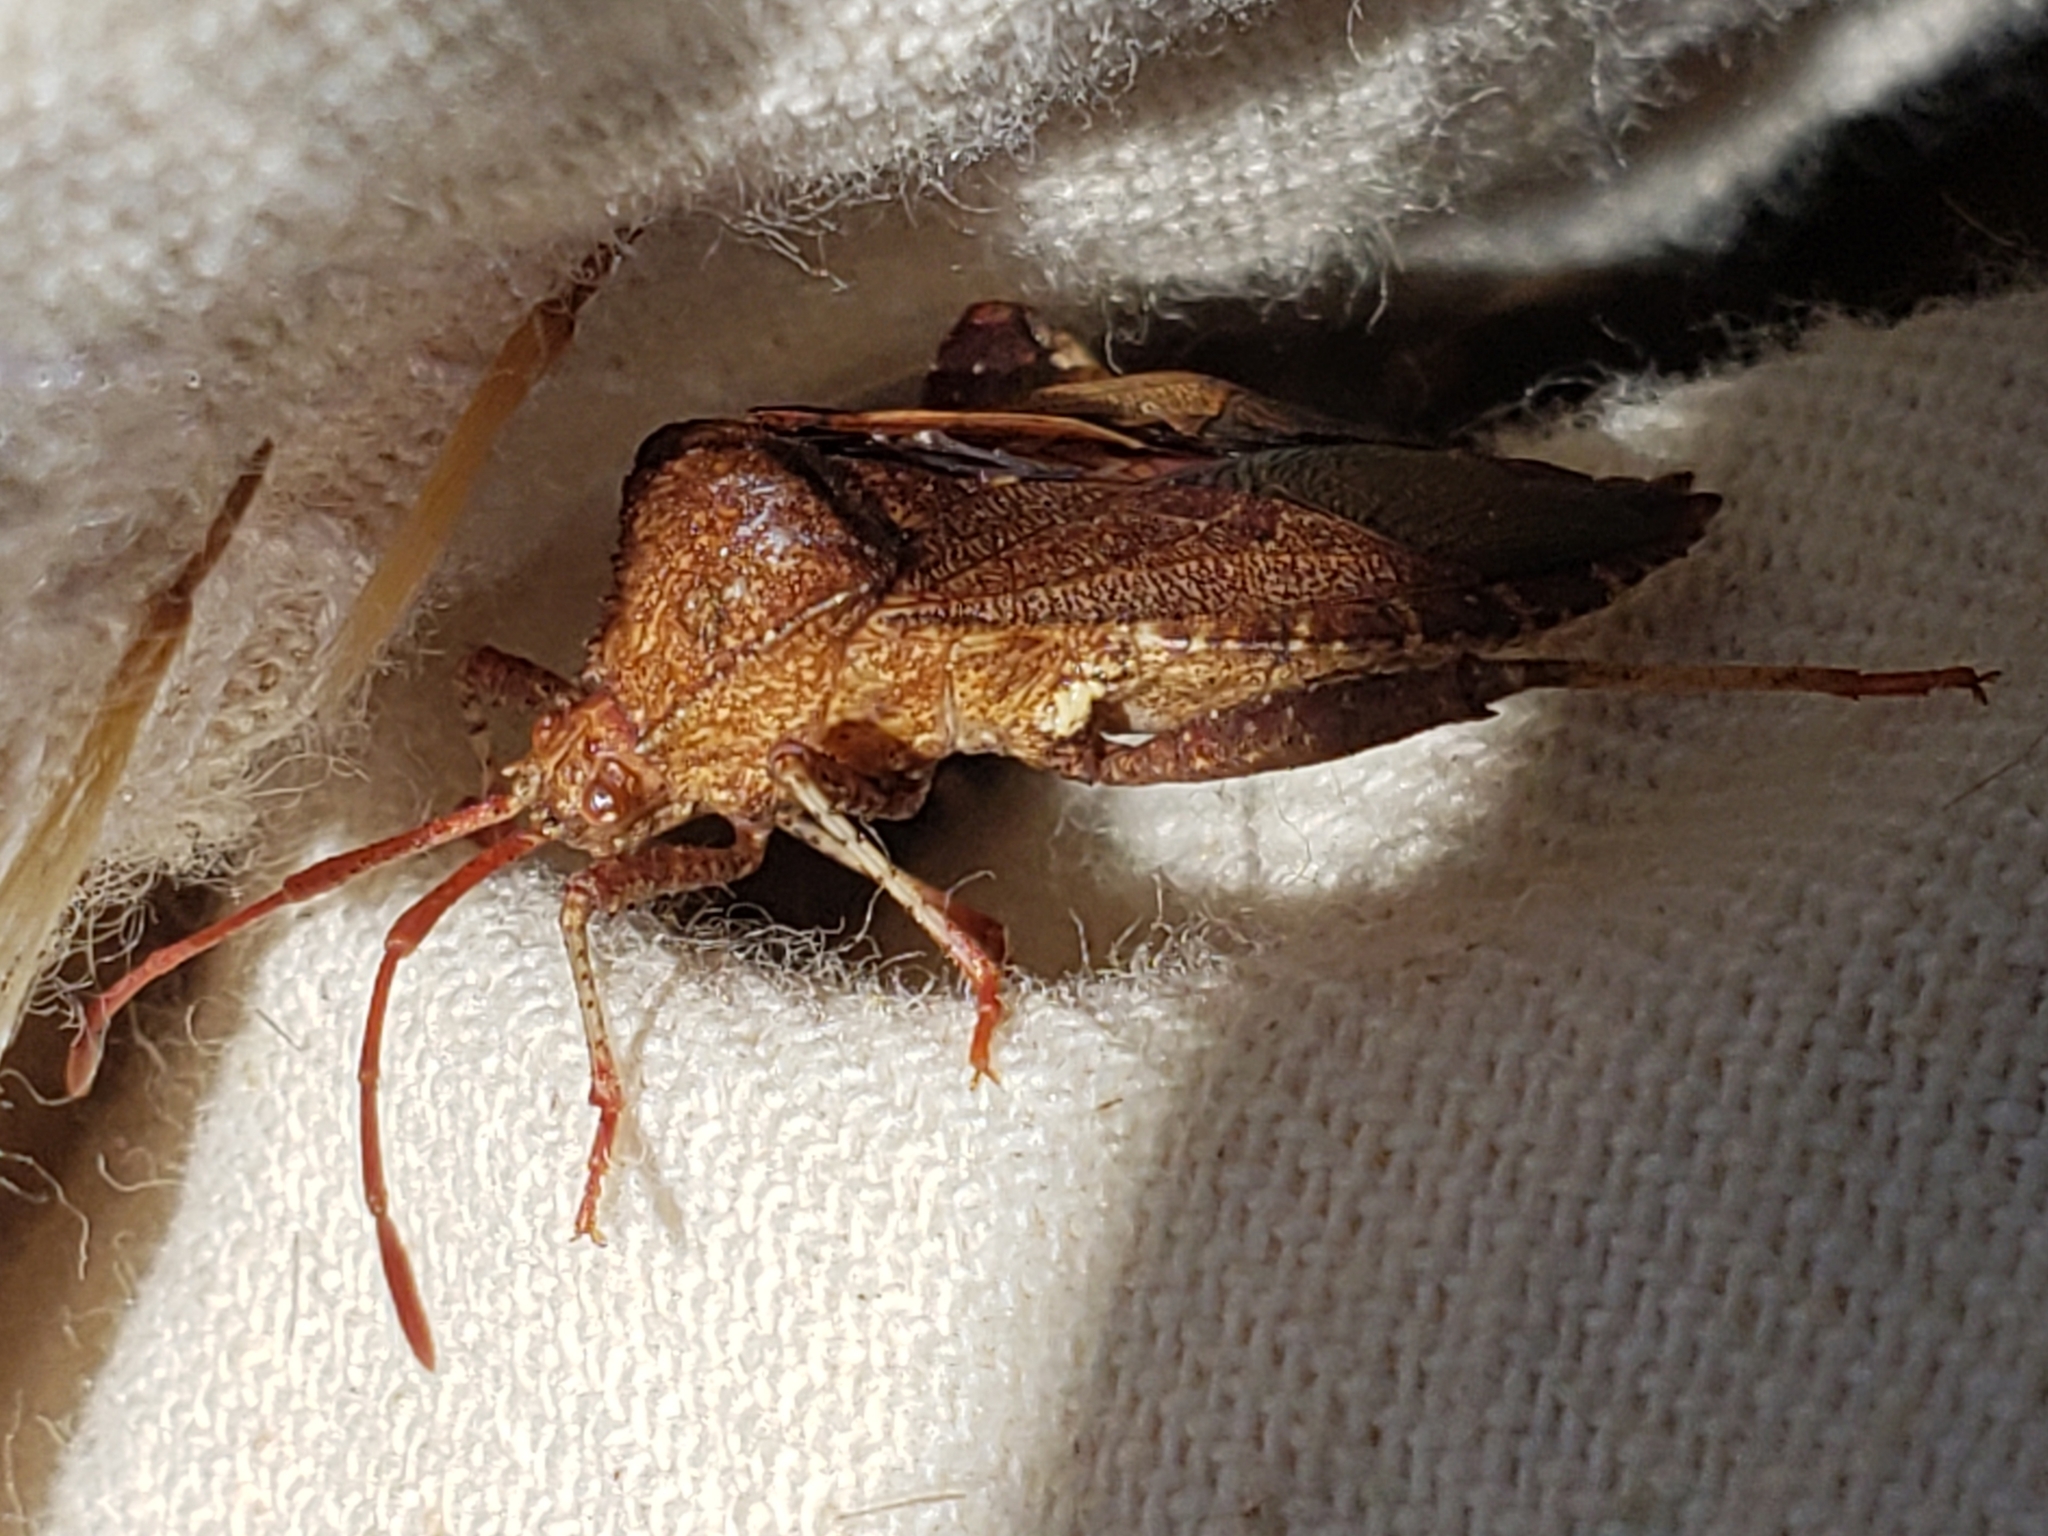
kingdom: Animalia
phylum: Arthropoda
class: Insecta
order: Hemiptera
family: Coreidae
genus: Euthochtha
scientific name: Euthochtha galeator
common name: Helmeted squash bug
